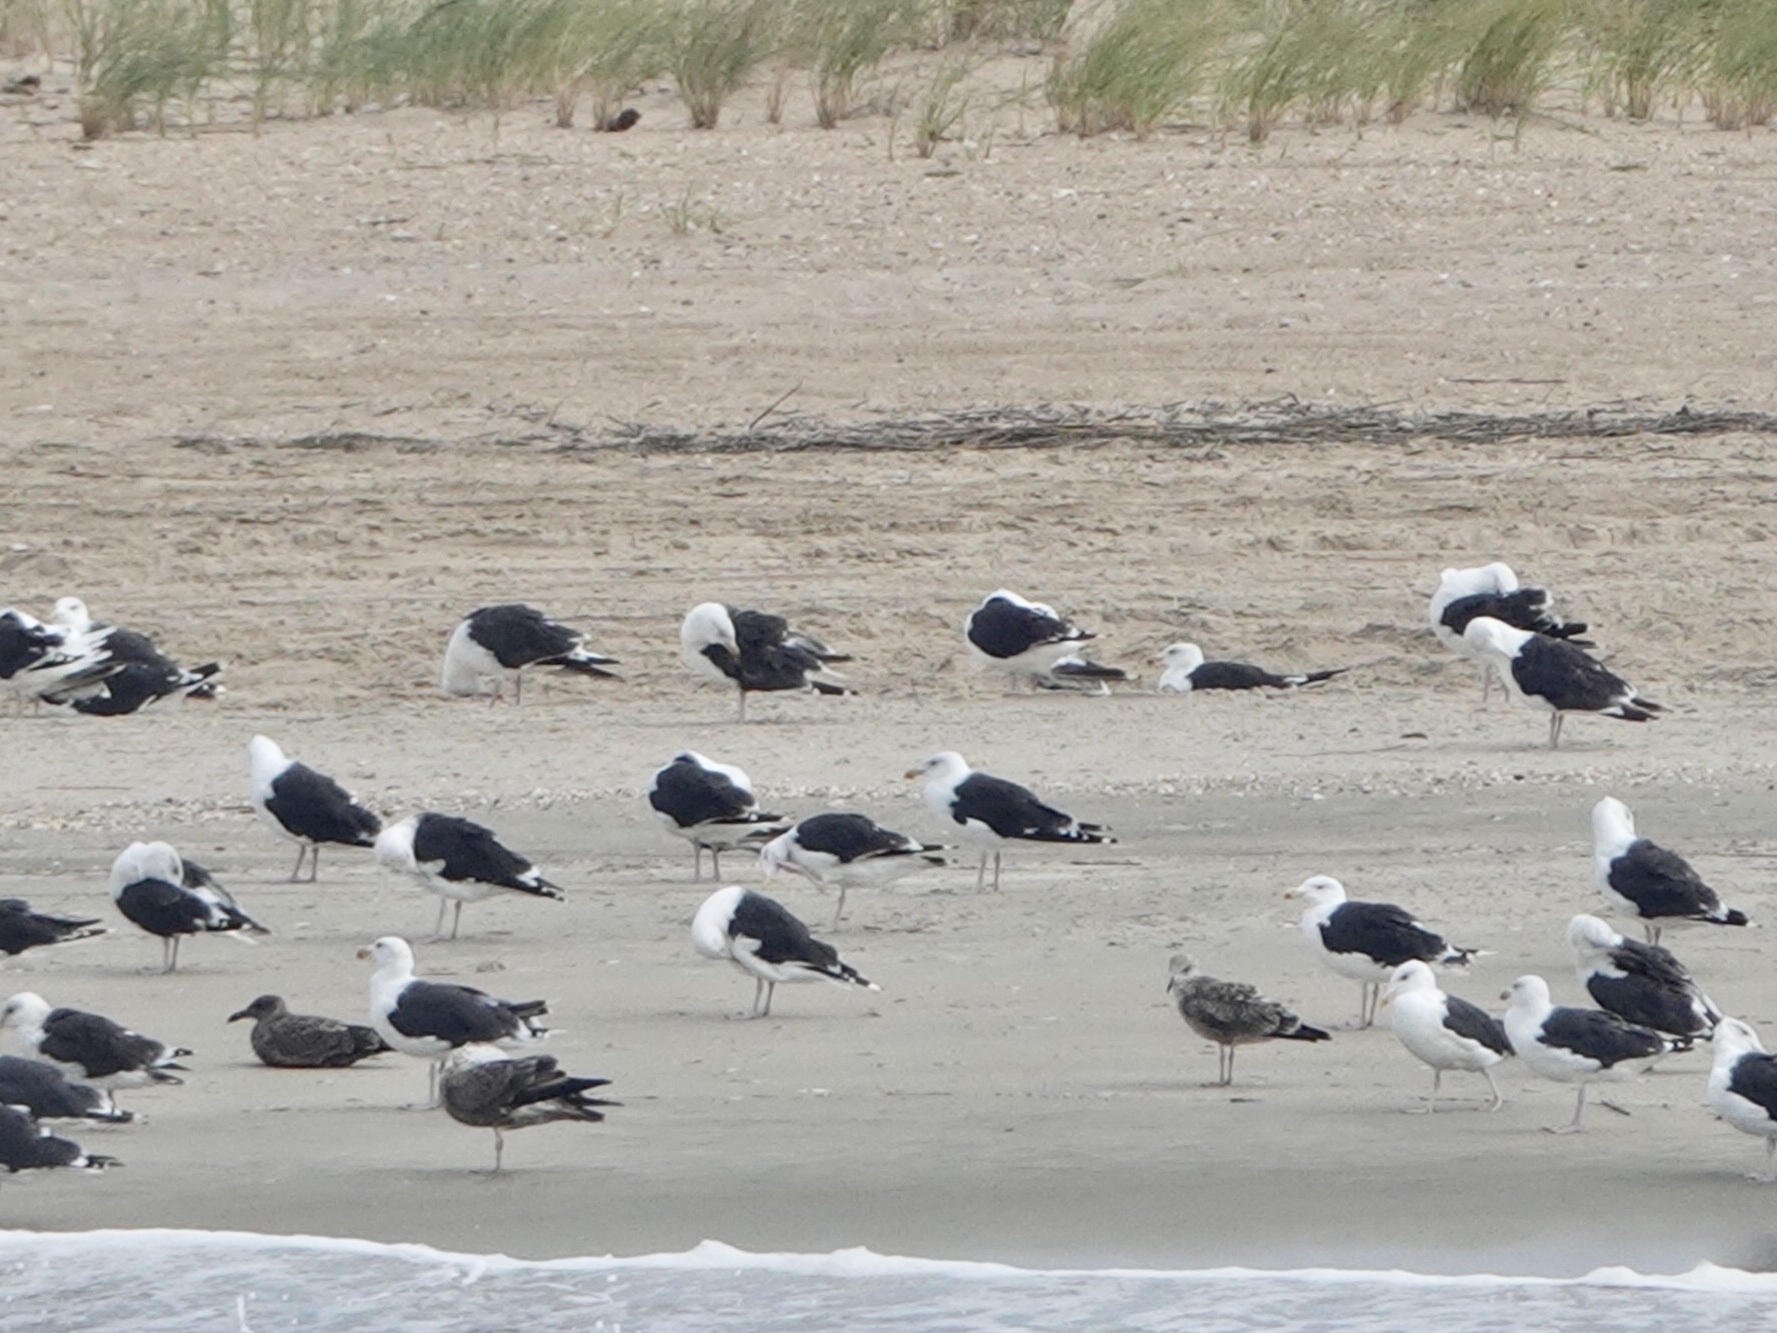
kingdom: Animalia
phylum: Chordata
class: Aves
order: Charadriiformes
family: Laridae
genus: Larus
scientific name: Larus marinus
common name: Great black-backed gull
